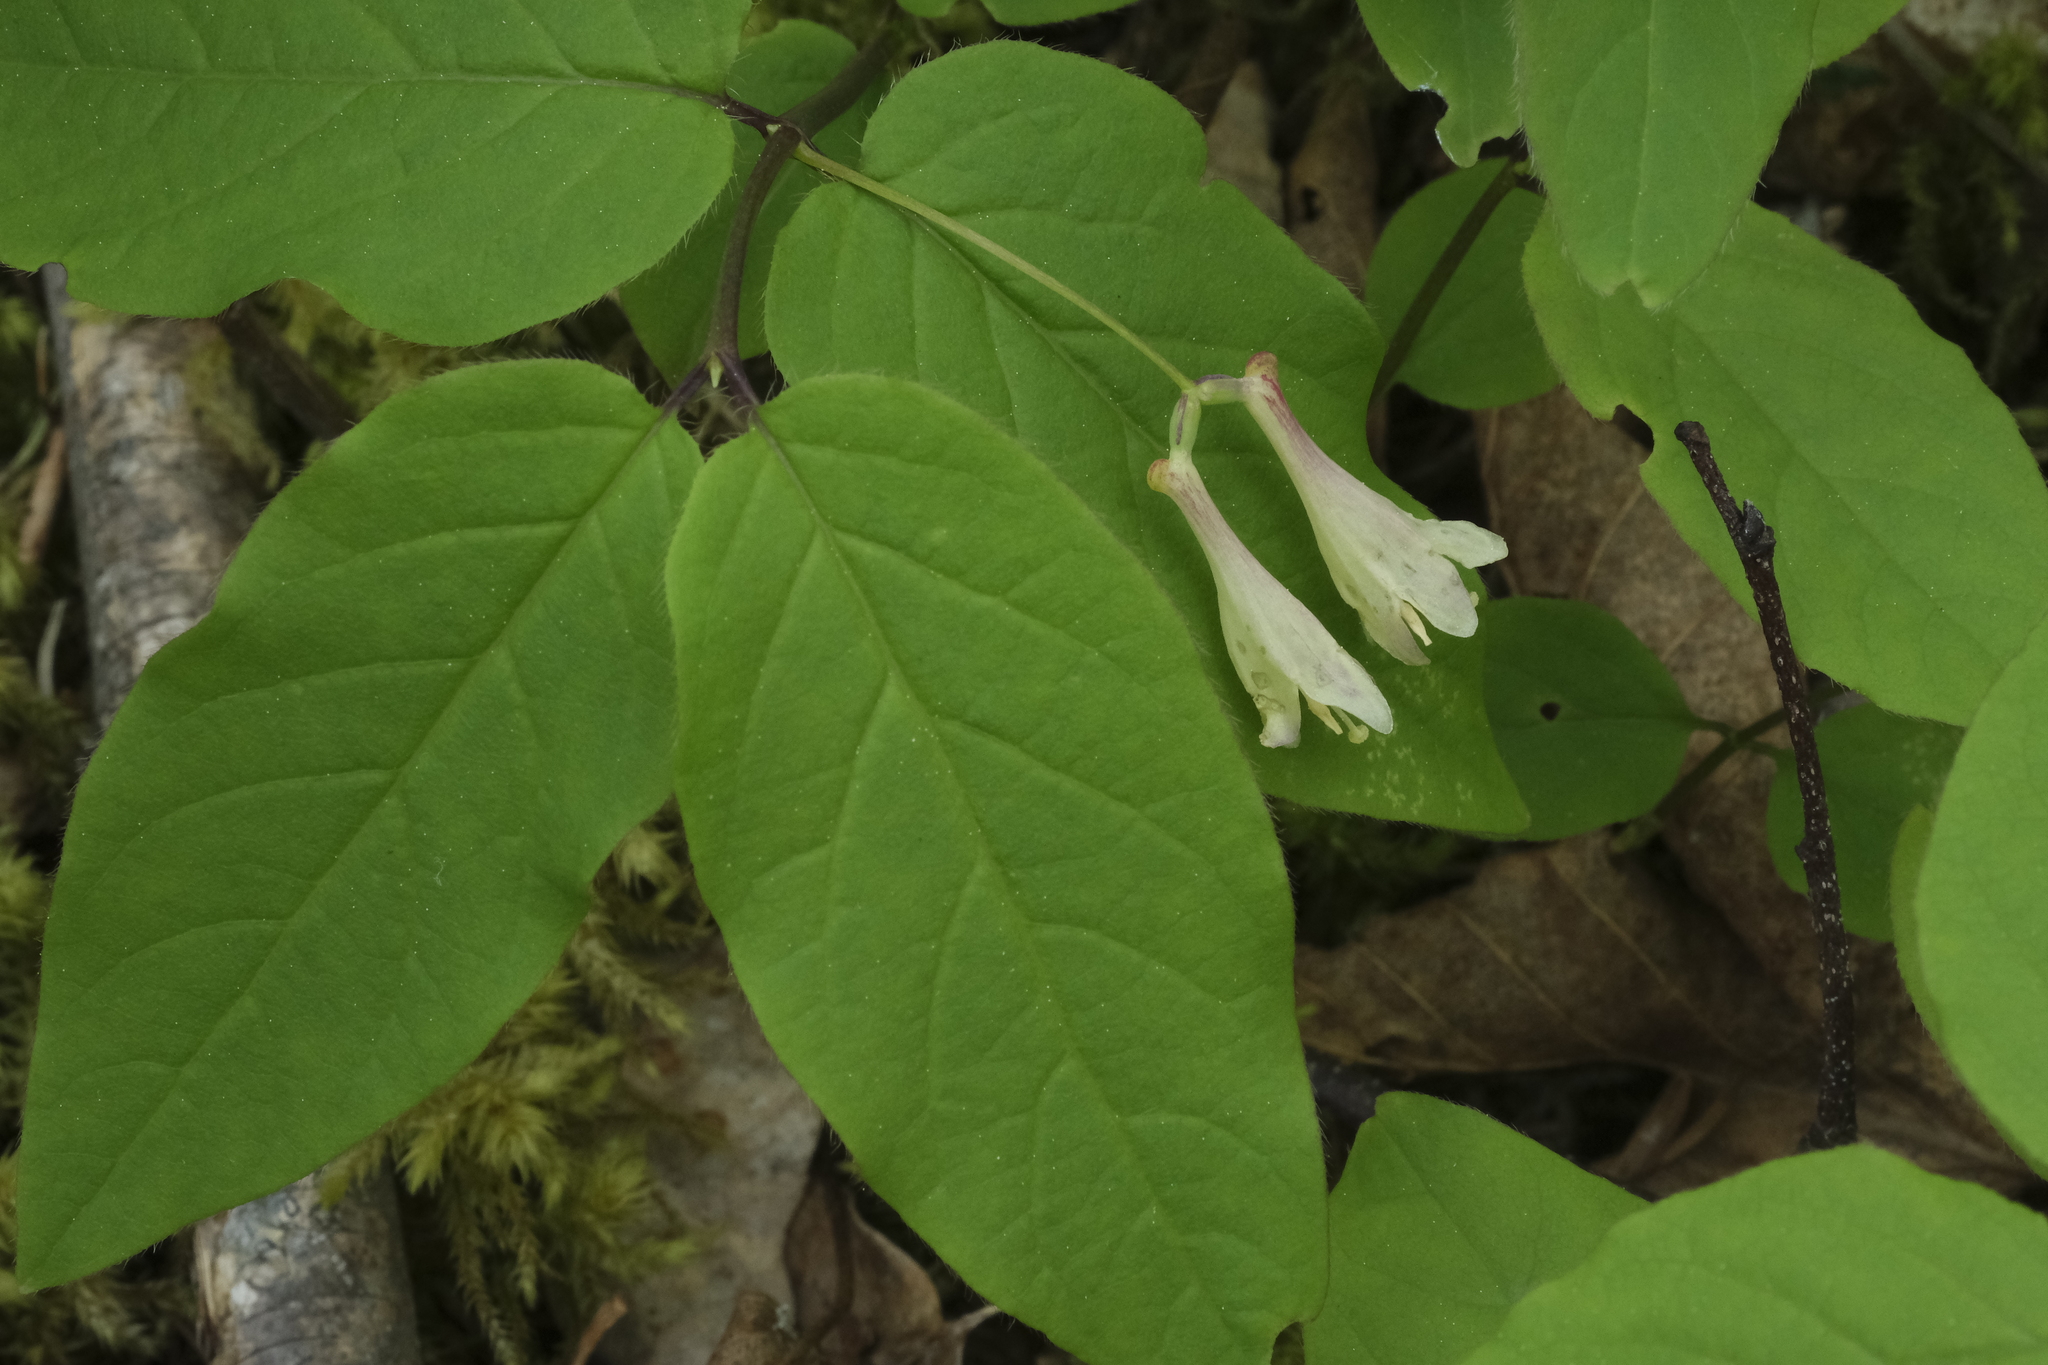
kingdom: Plantae
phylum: Tracheophyta
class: Magnoliopsida
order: Dipsacales
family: Caprifoliaceae
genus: Lonicera
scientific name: Lonicera canadensis
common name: American fly-honeysuckle
